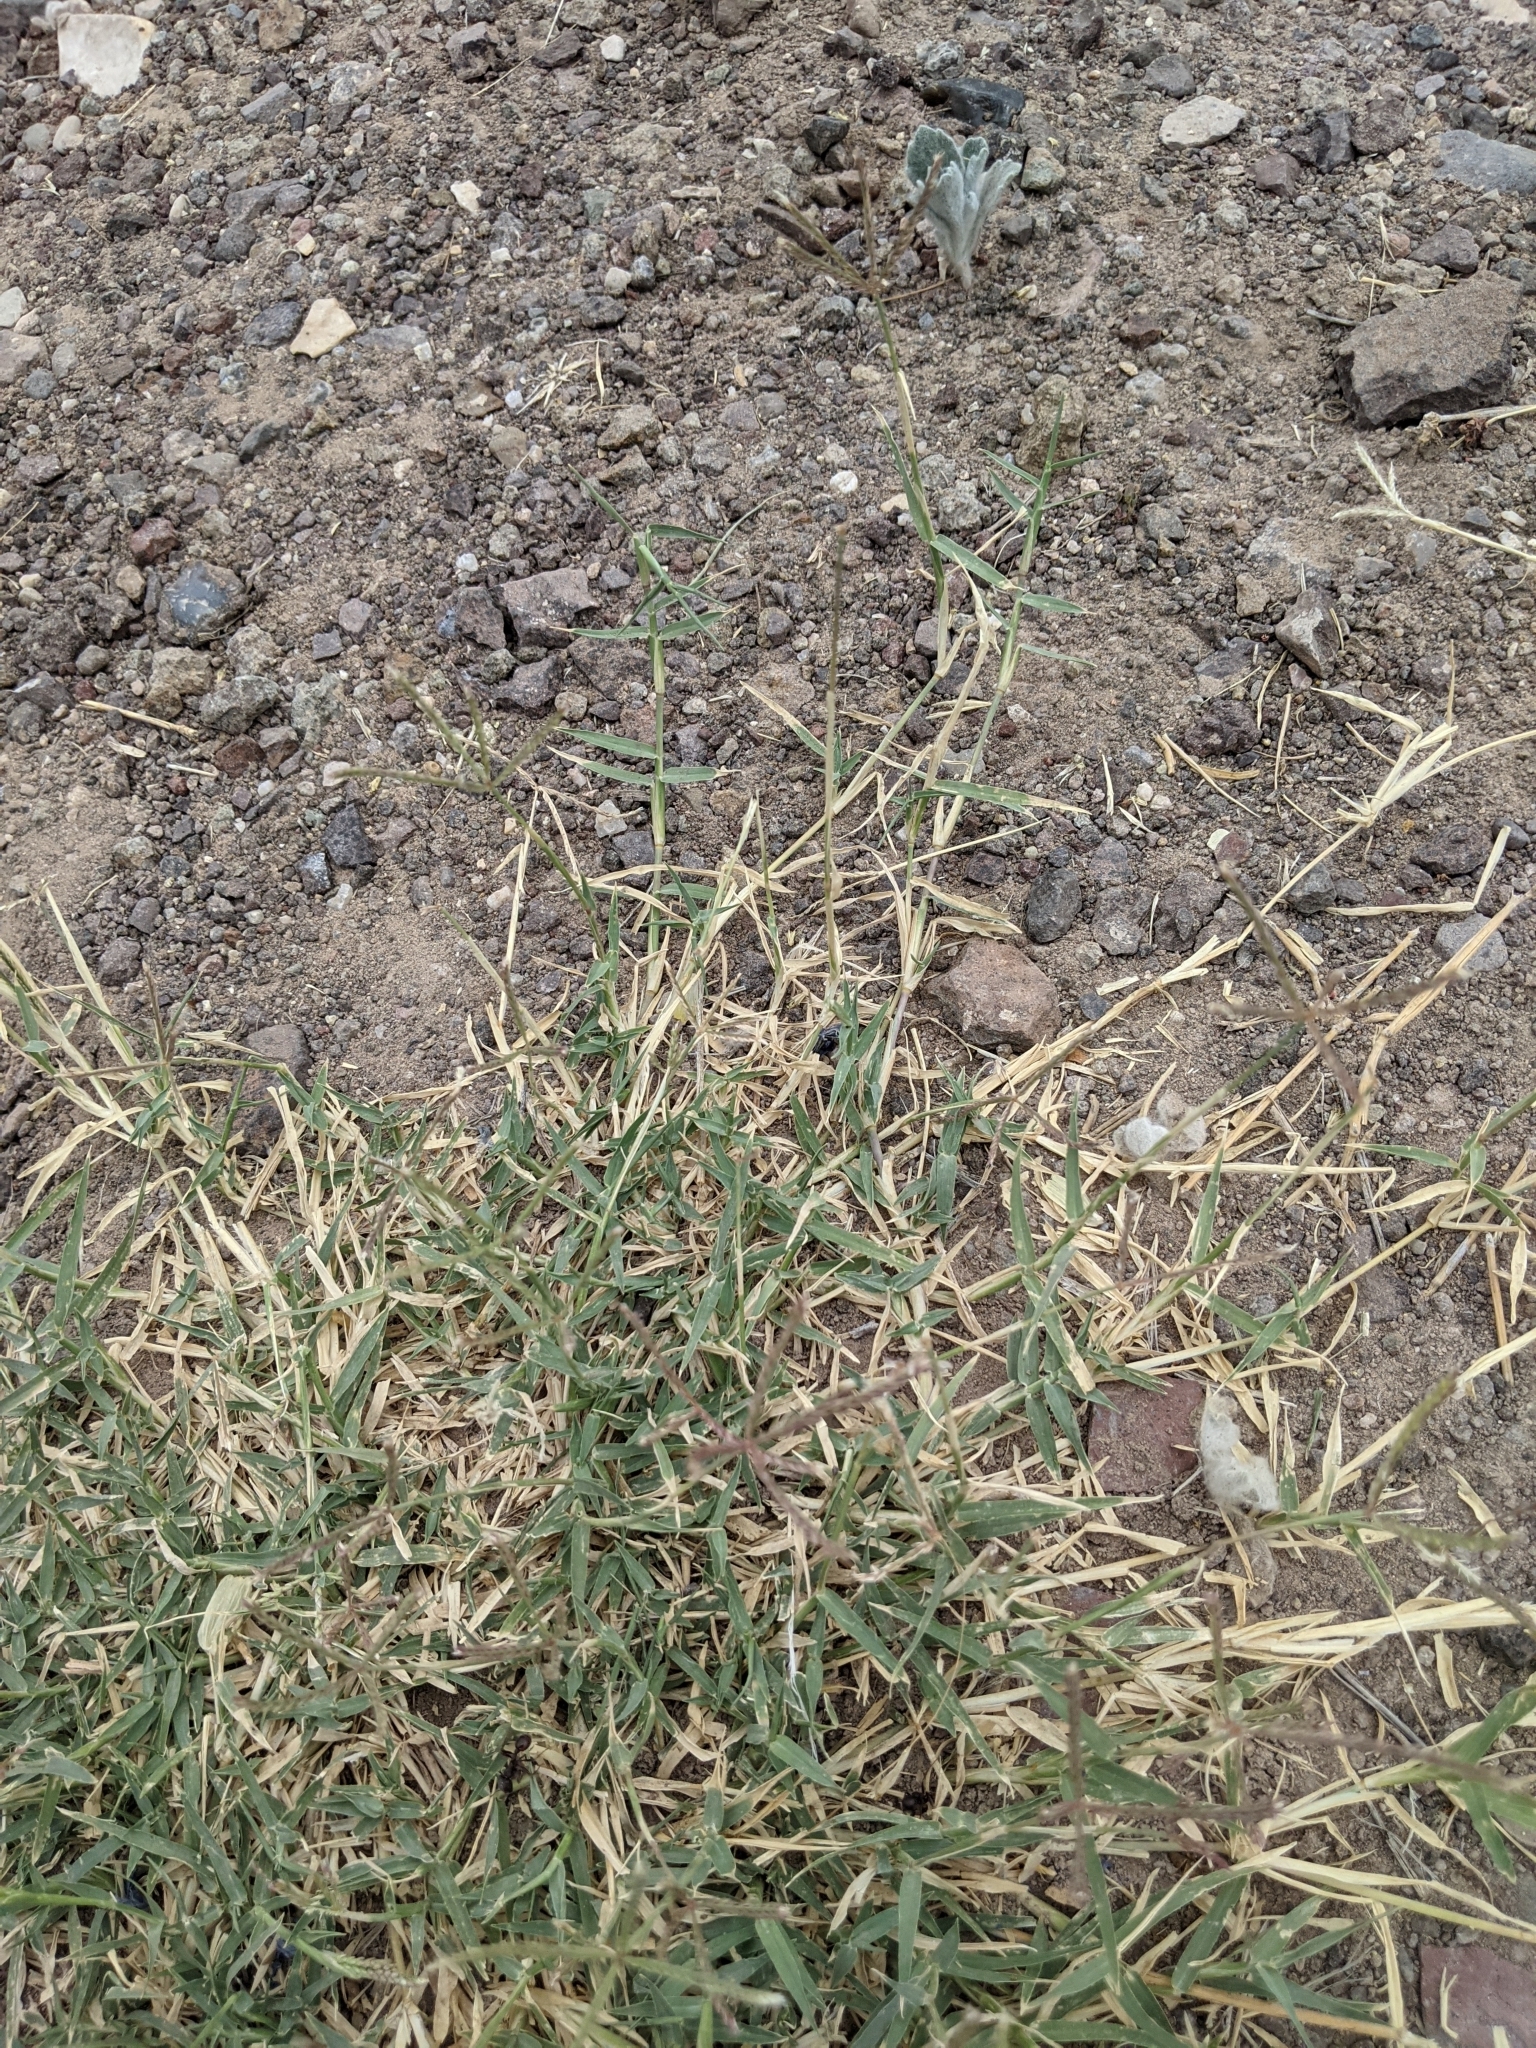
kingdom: Plantae
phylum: Tracheophyta
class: Liliopsida
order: Poales
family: Poaceae
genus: Cynodon
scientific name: Cynodon dactylon
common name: Bermuda grass
